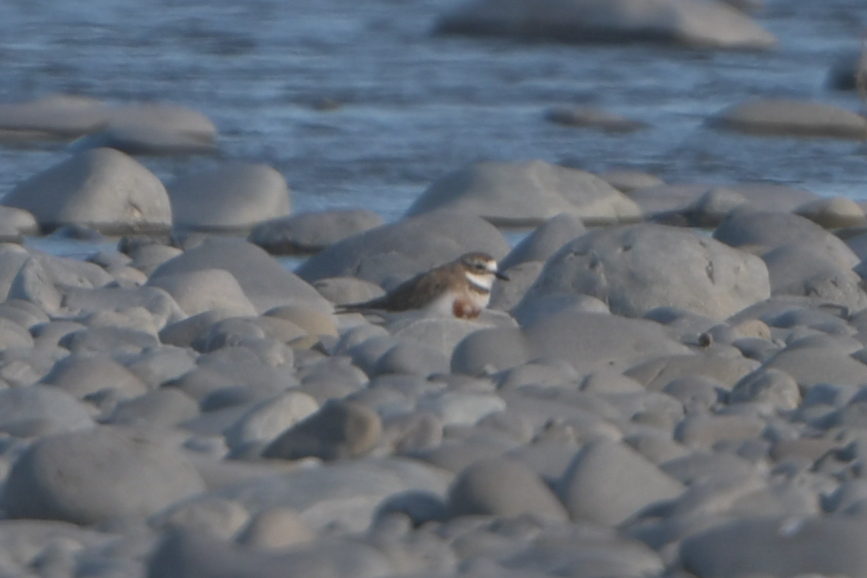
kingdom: Animalia
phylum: Chordata
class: Aves
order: Charadriiformes
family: Charadriidae
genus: Anarhynchus
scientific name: Anarhynchus
